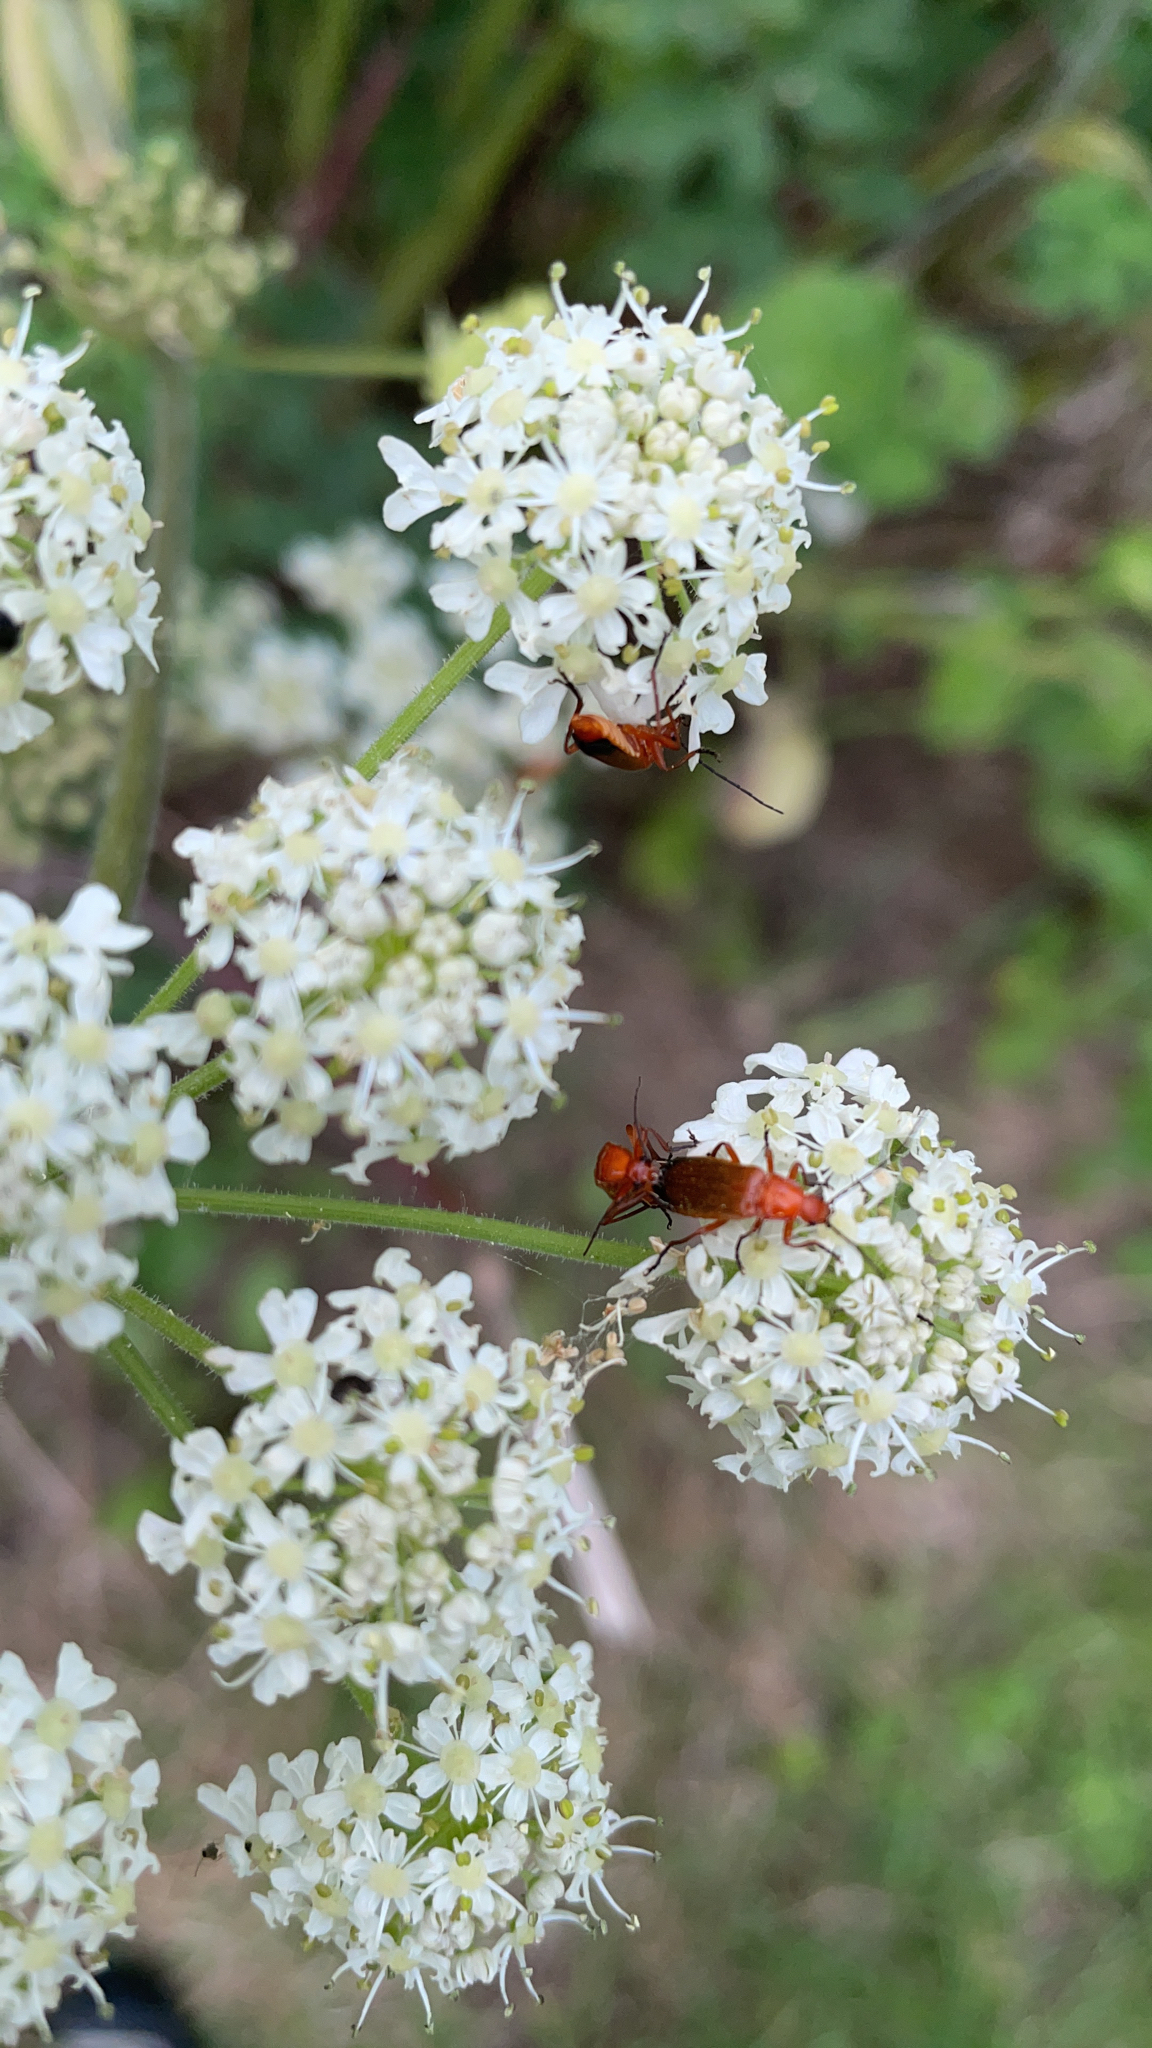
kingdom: Animalia
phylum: Arthropoda
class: Insecta
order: Coleoptera
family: Cantharidae
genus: Rhagonycha
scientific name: Rhagonycha fulva
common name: Common red soldier beetle
